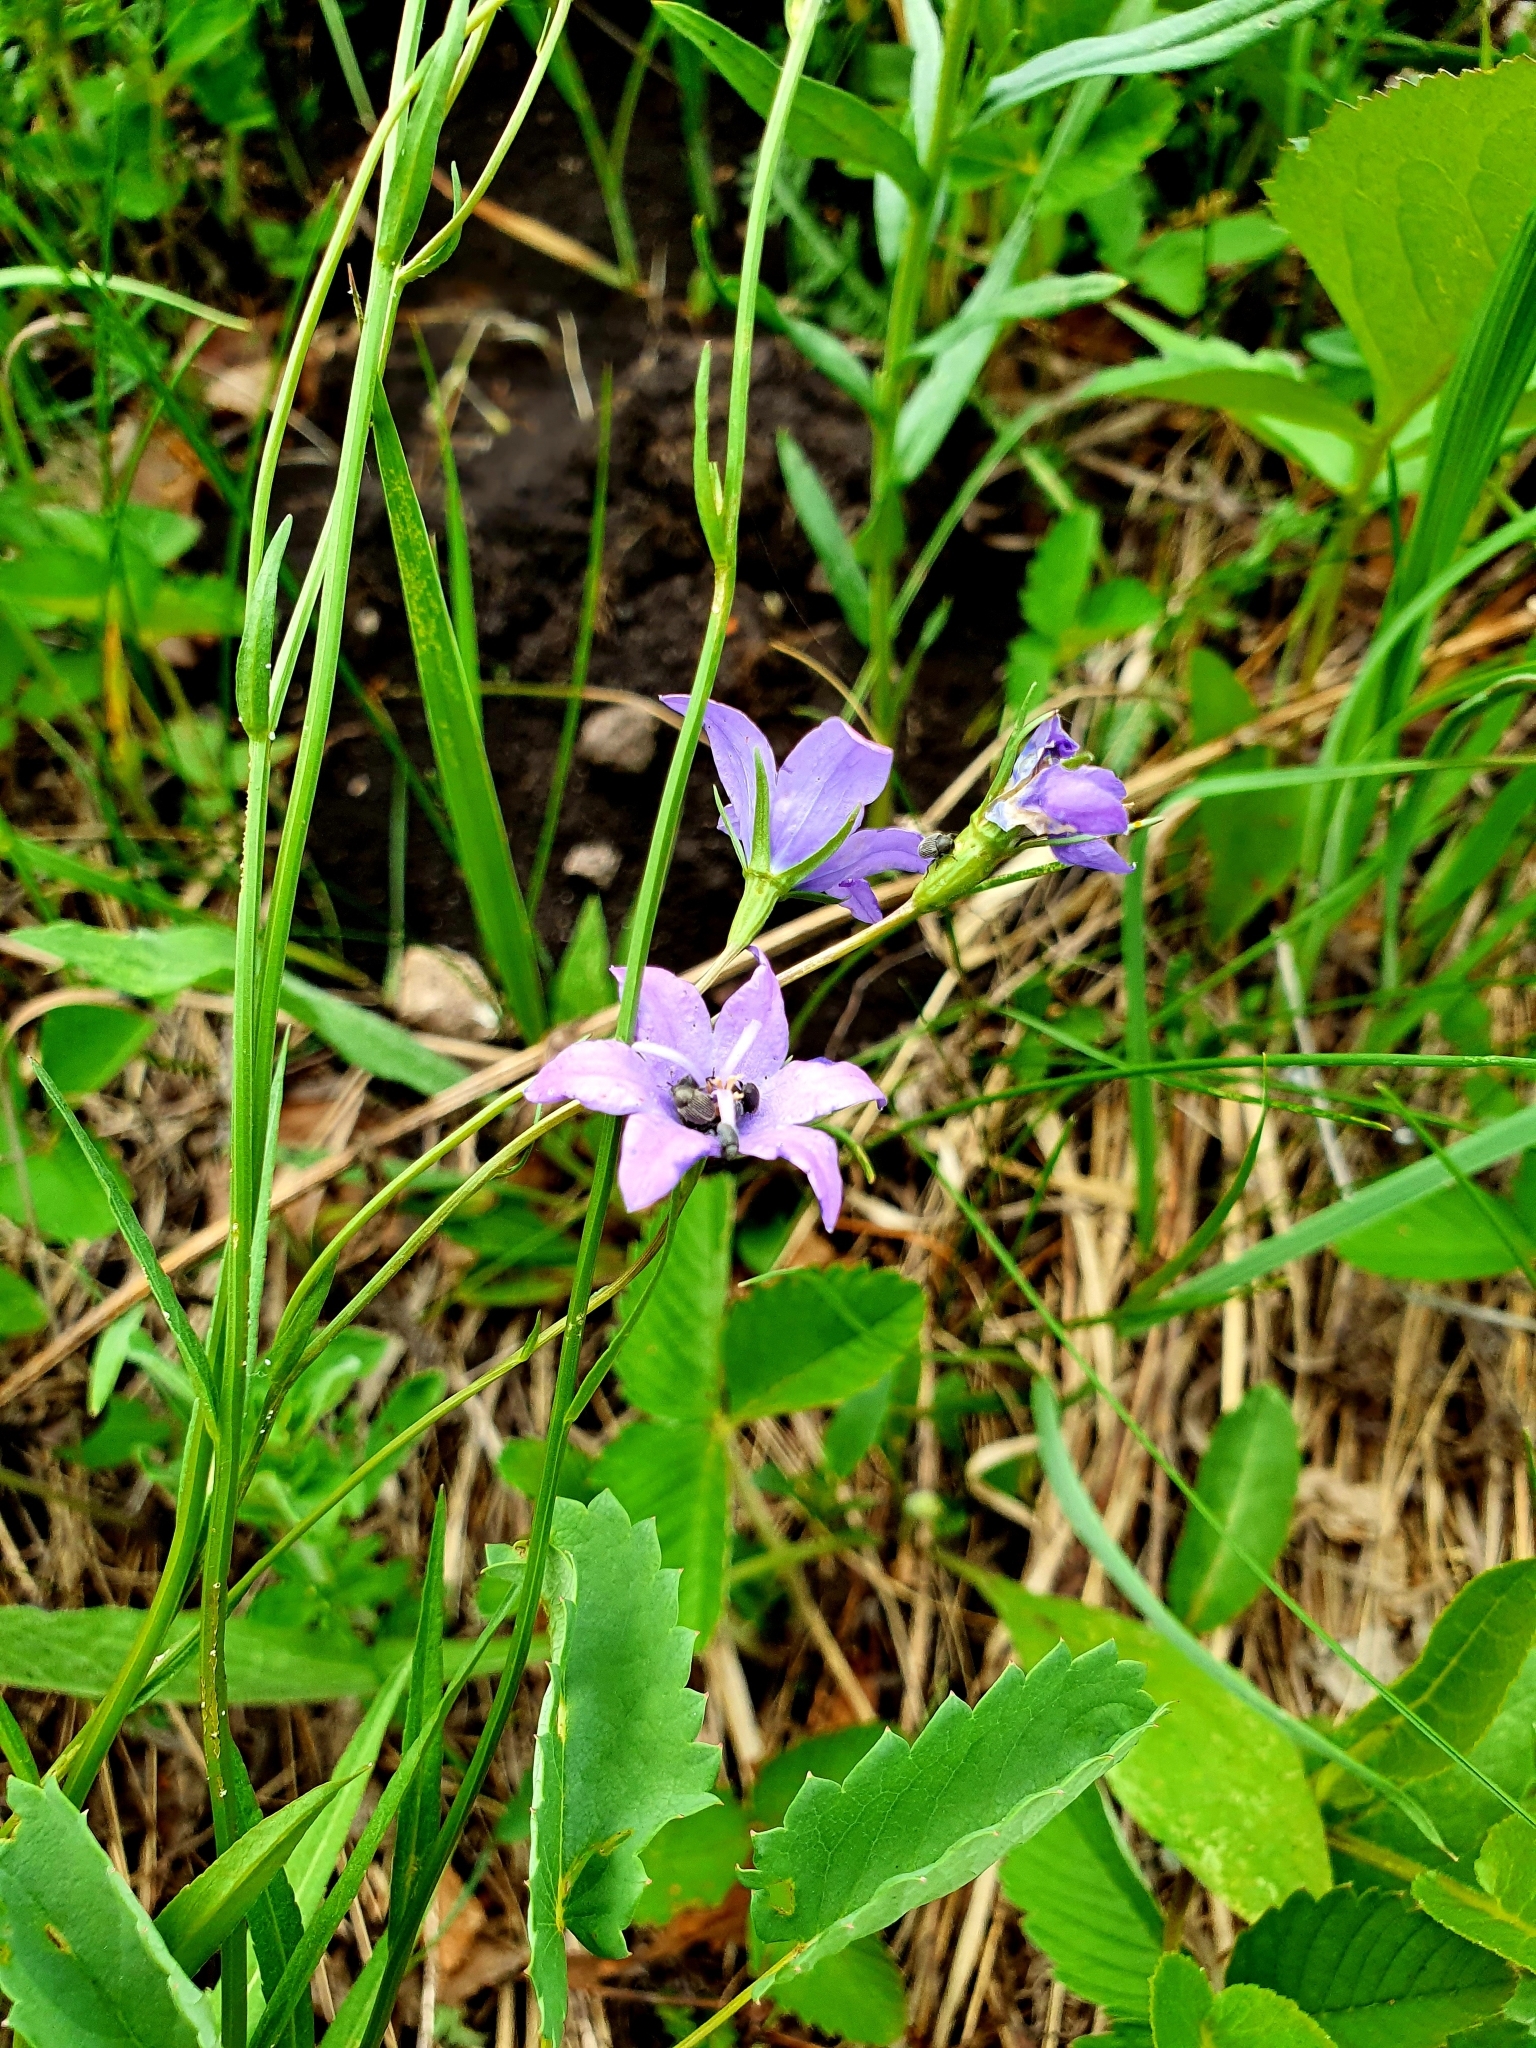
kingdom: Plantae
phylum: Tracheophyta
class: Magnoliopsida
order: Asterales
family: Campanulaceae
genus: Campanula
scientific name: Campanula stevenii
